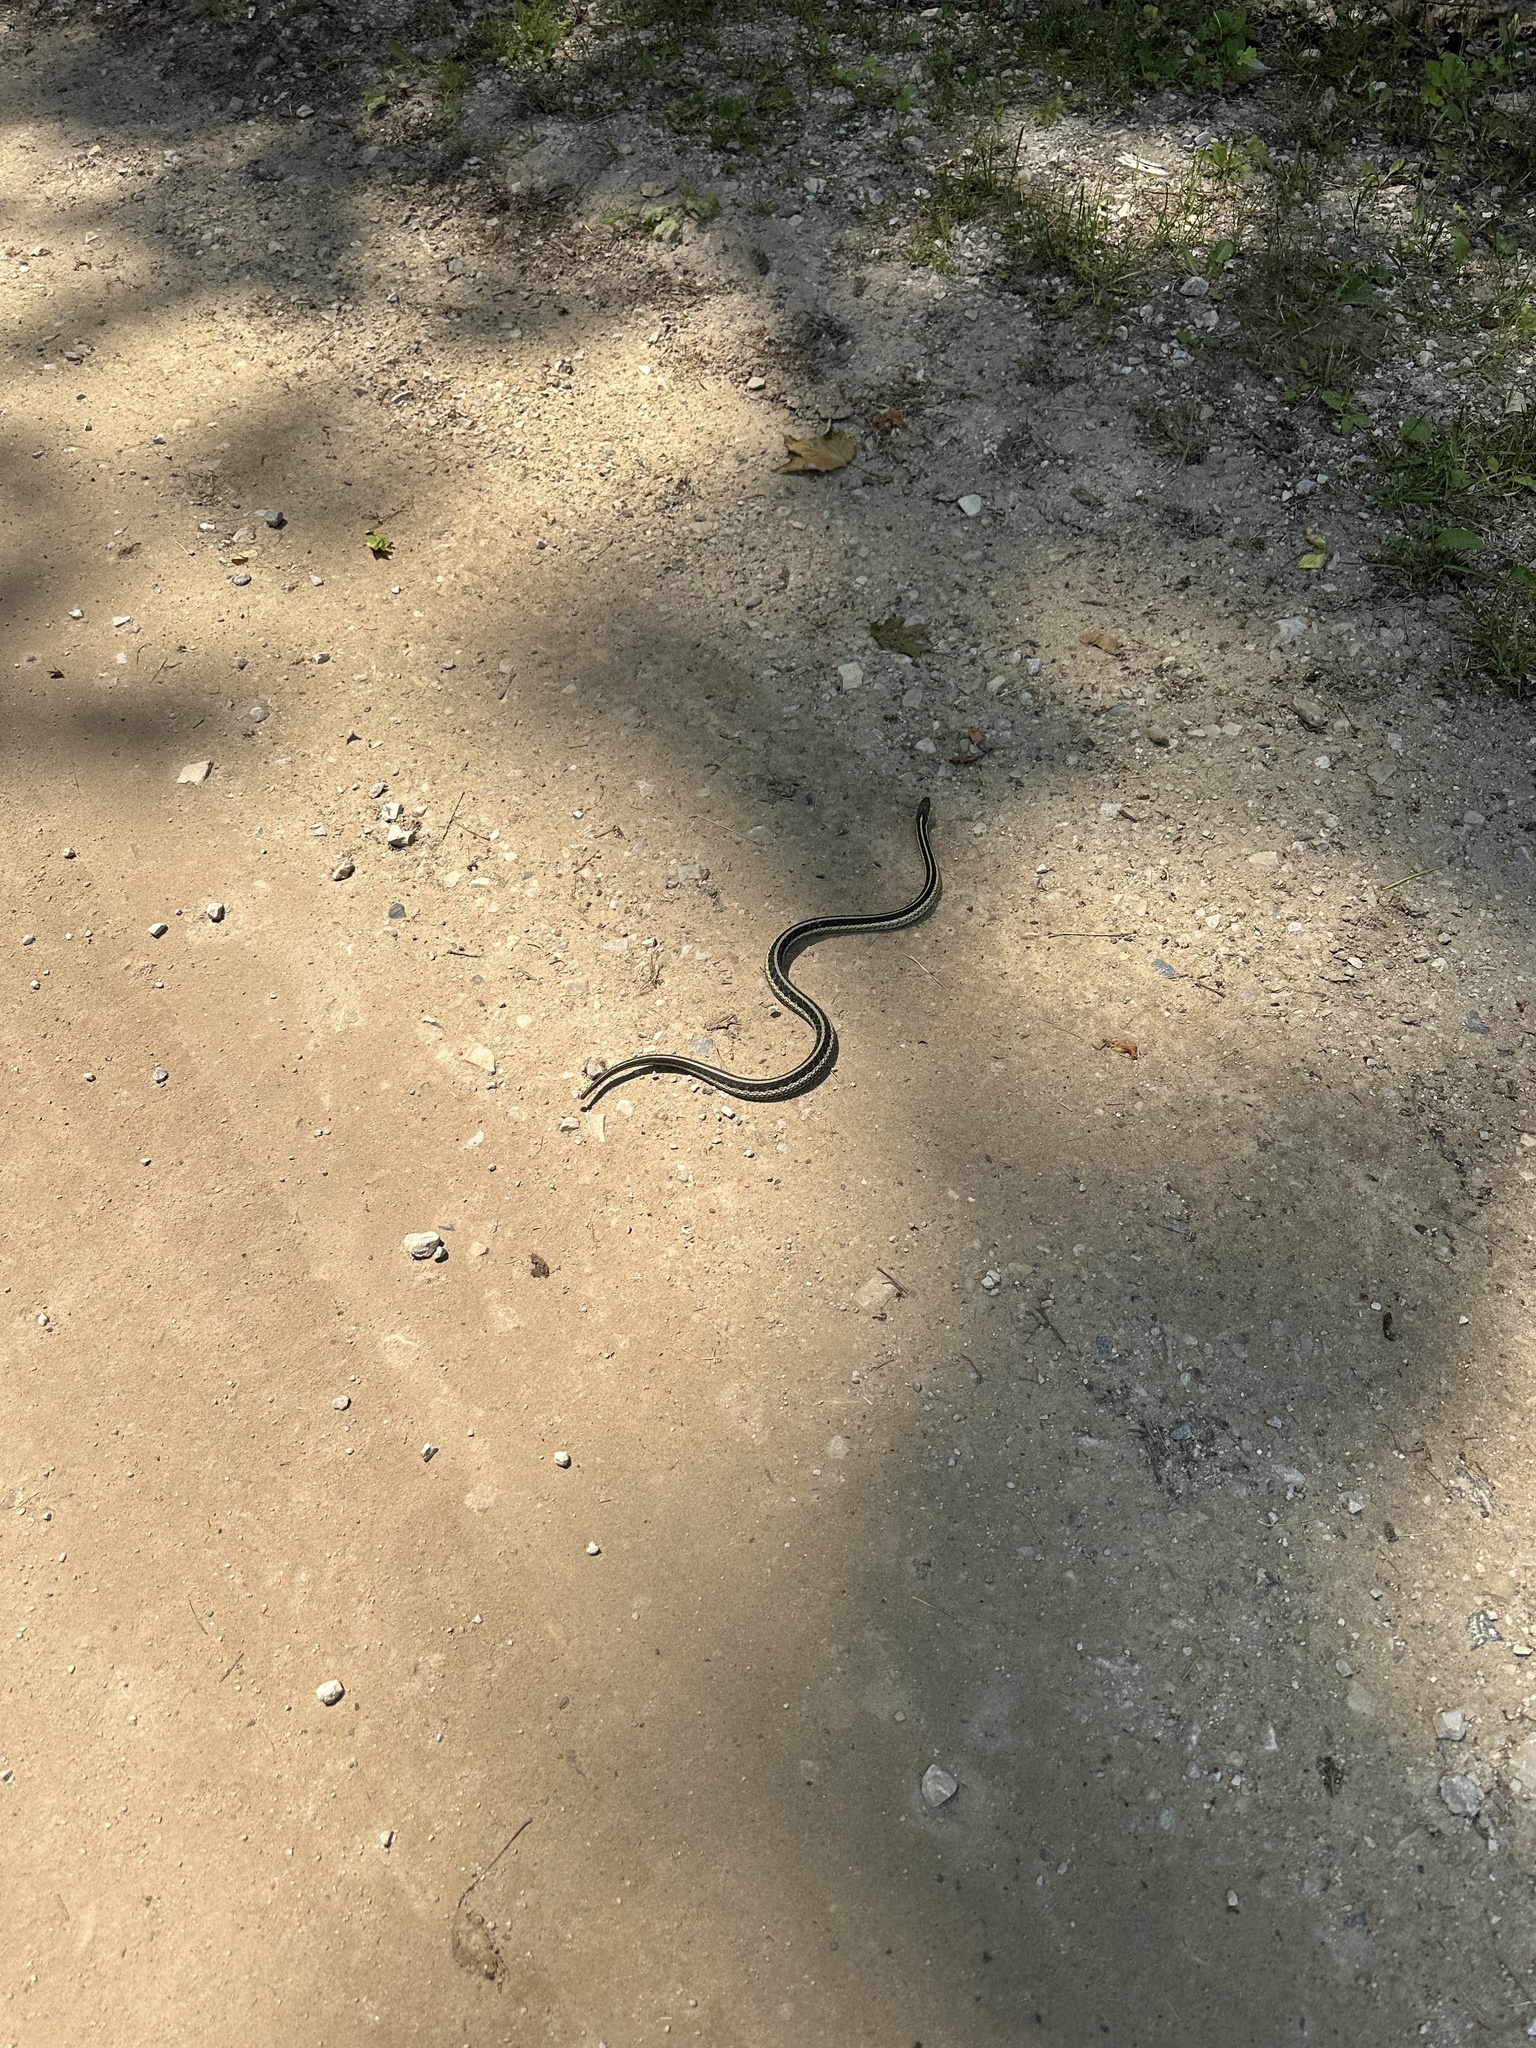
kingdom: Animalia
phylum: Chordata
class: Squamata
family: Colubridae
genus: Thamnophis
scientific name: Thamnophis sirtalis
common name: Common garter snake
